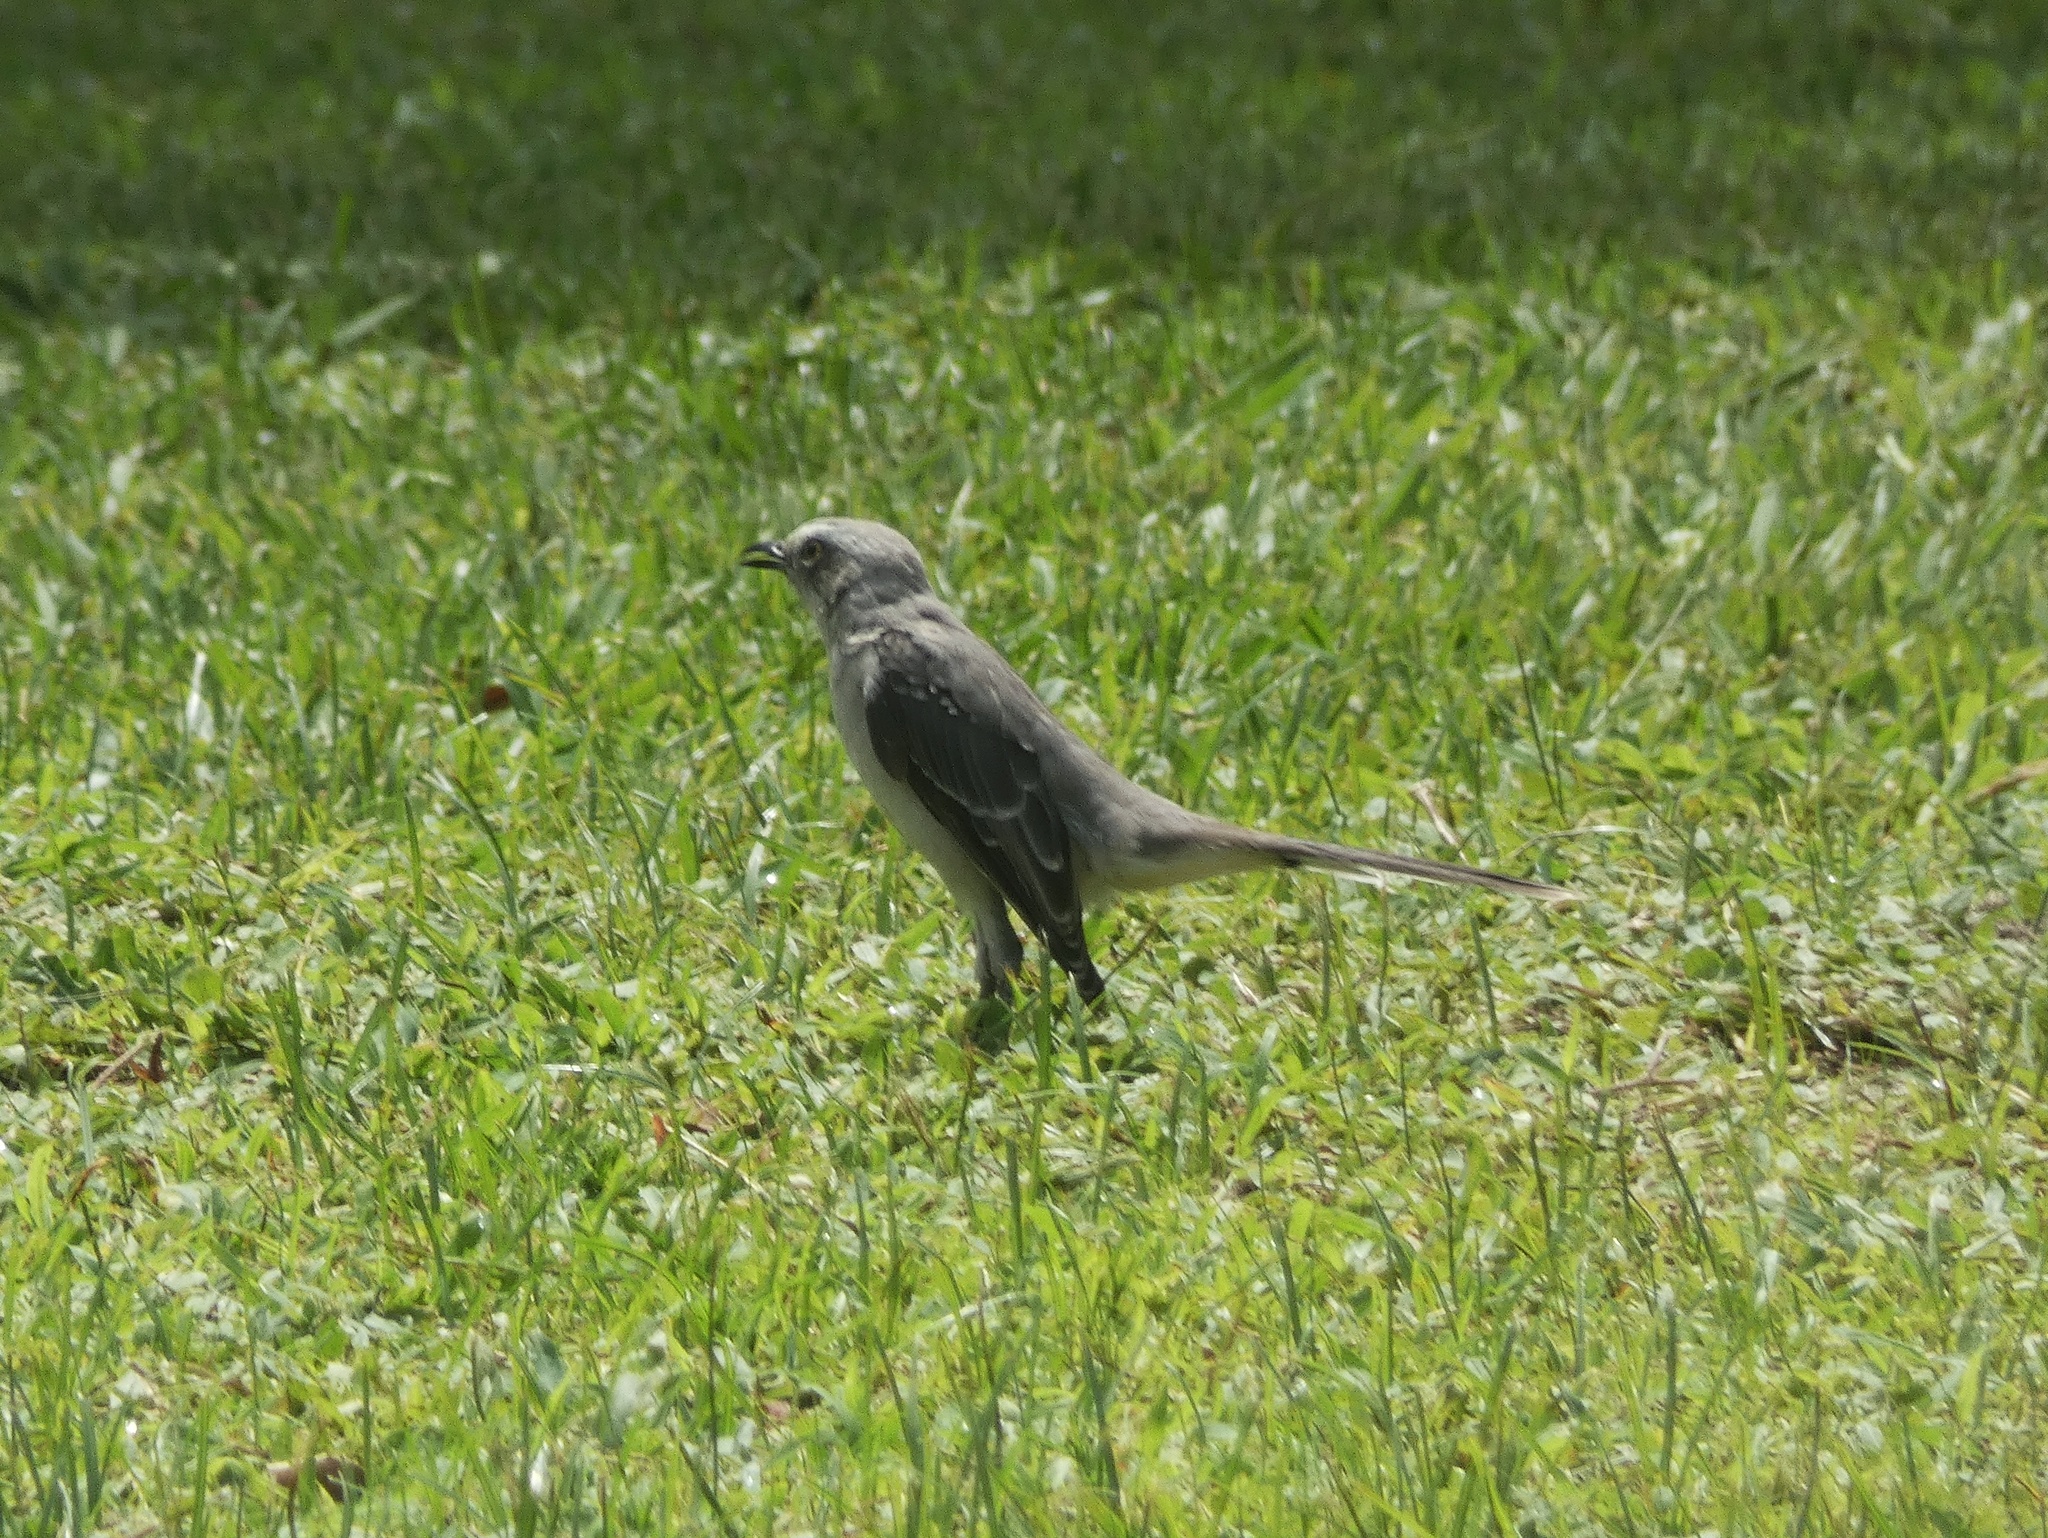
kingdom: Animalia
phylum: Chordata
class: Aves
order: Passeriformes
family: Mimidae
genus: Mimus
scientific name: Mimus gilvus
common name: Tropical mockingbird
